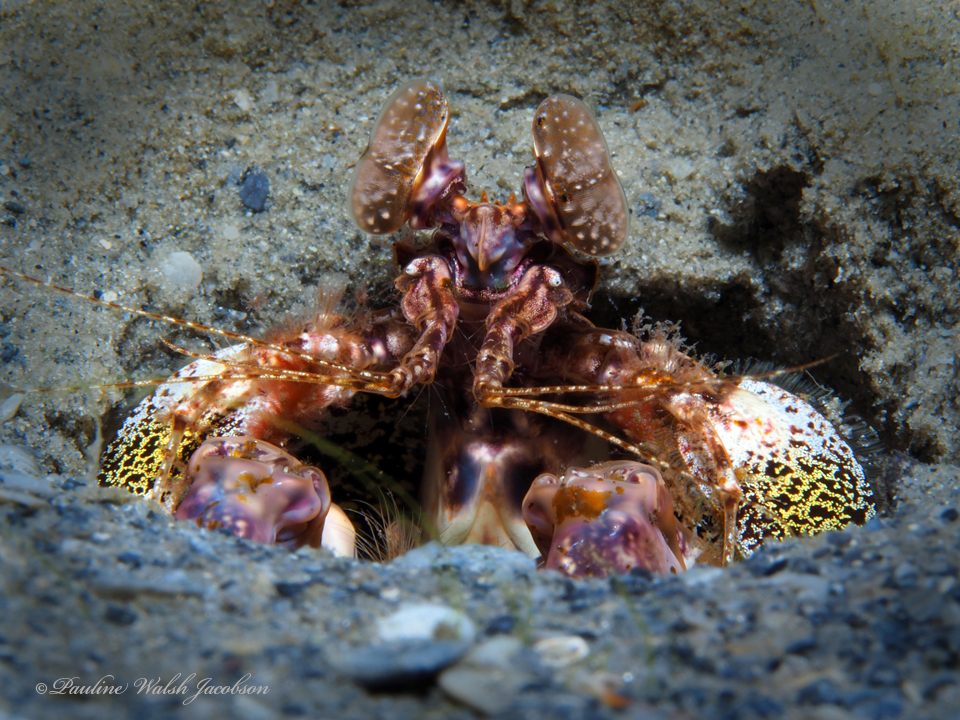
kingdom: Animalia
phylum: Arthropoda
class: Malacostraca
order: Stomatopoda
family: Lysiosquillidae
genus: Lysiosquilla
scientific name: Lysiosquilla scabricauda
